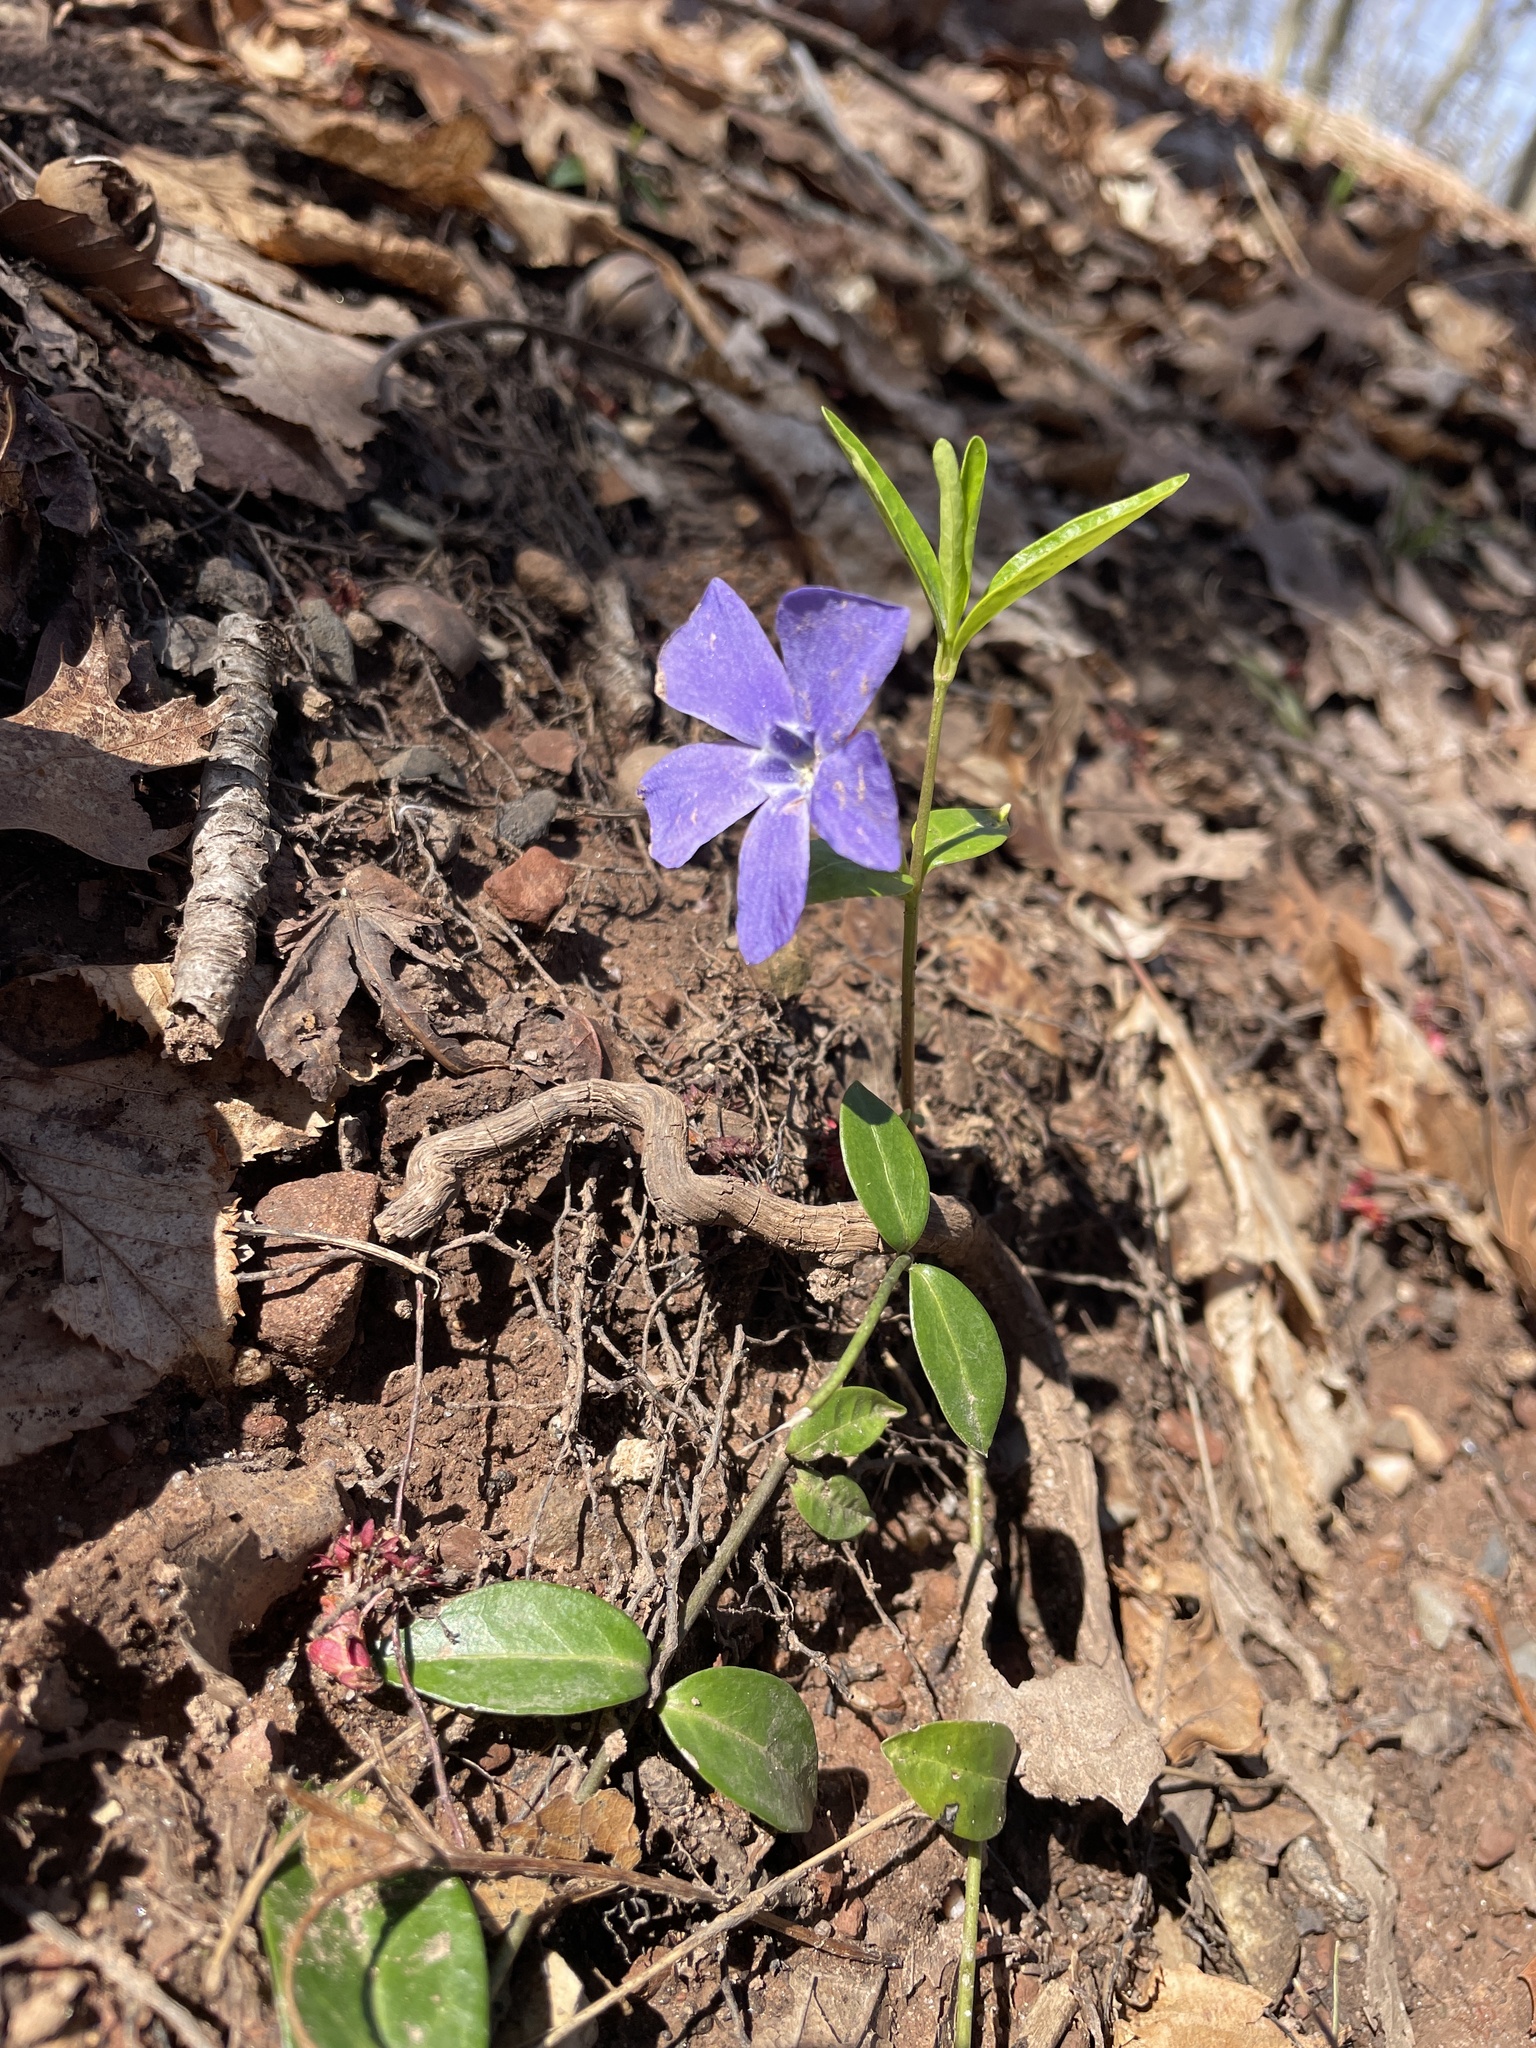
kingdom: Plantae
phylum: Tracheophyta
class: Magnoliopsida
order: Gentianales
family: Apocynaceae
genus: Vinca
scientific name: Vinca minor
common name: Lesser periwinkle
